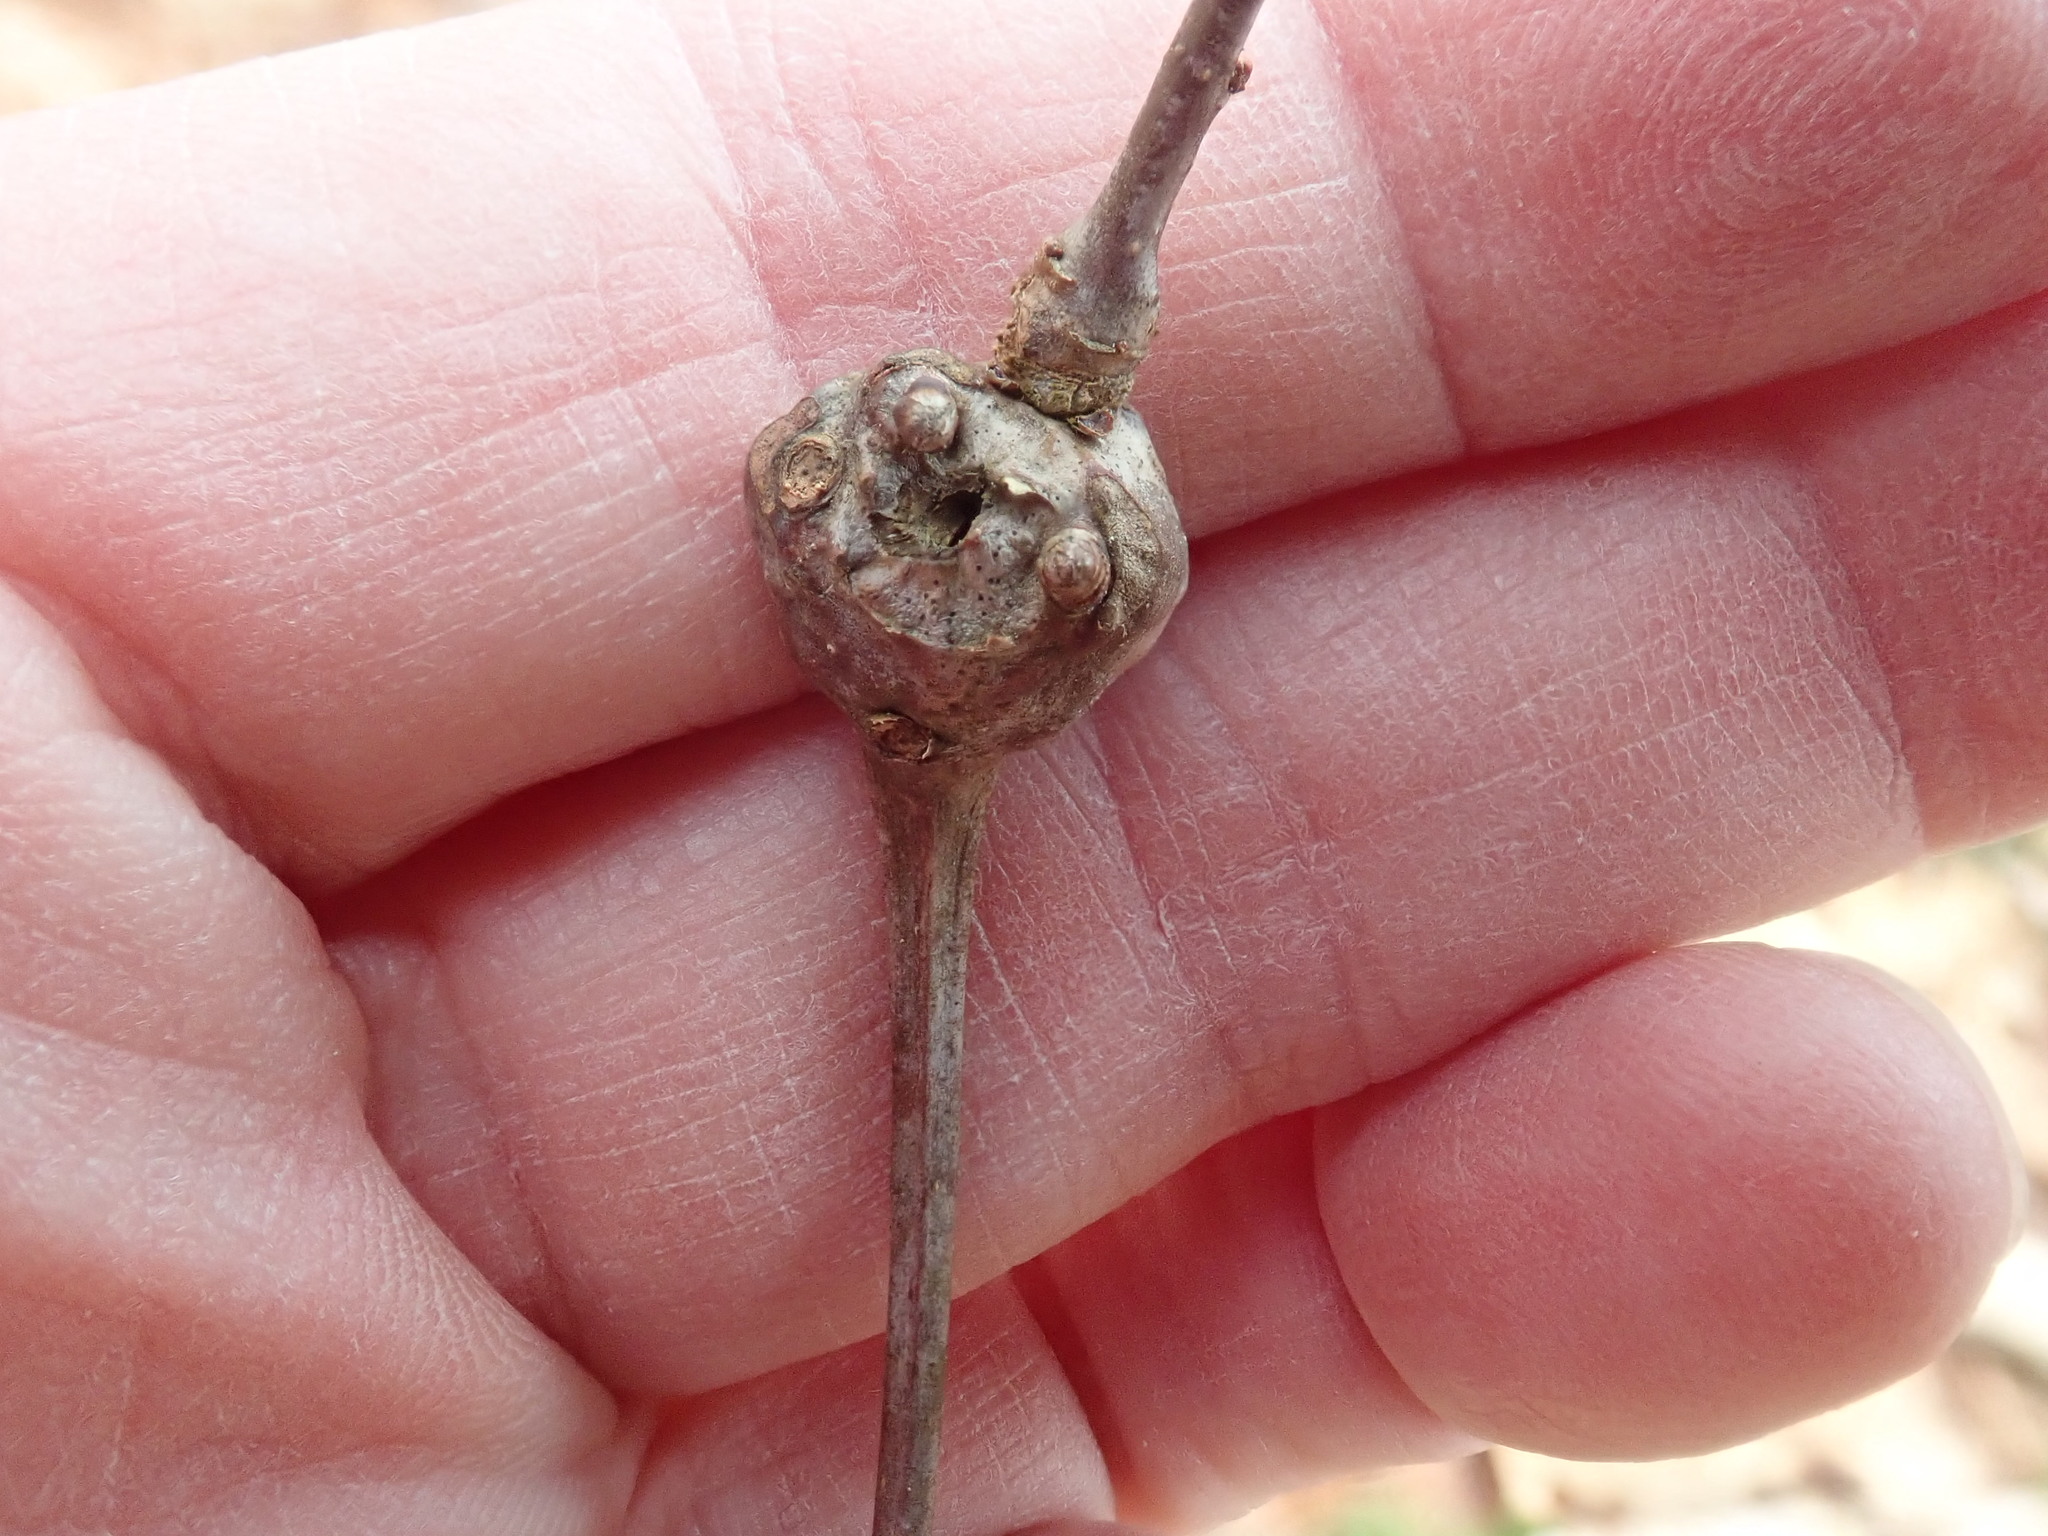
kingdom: Animalia
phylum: Arthropoda
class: Insecta
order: Hymenoptera
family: Cynipidae
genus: Callirhytis
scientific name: Callirhytis clavula
